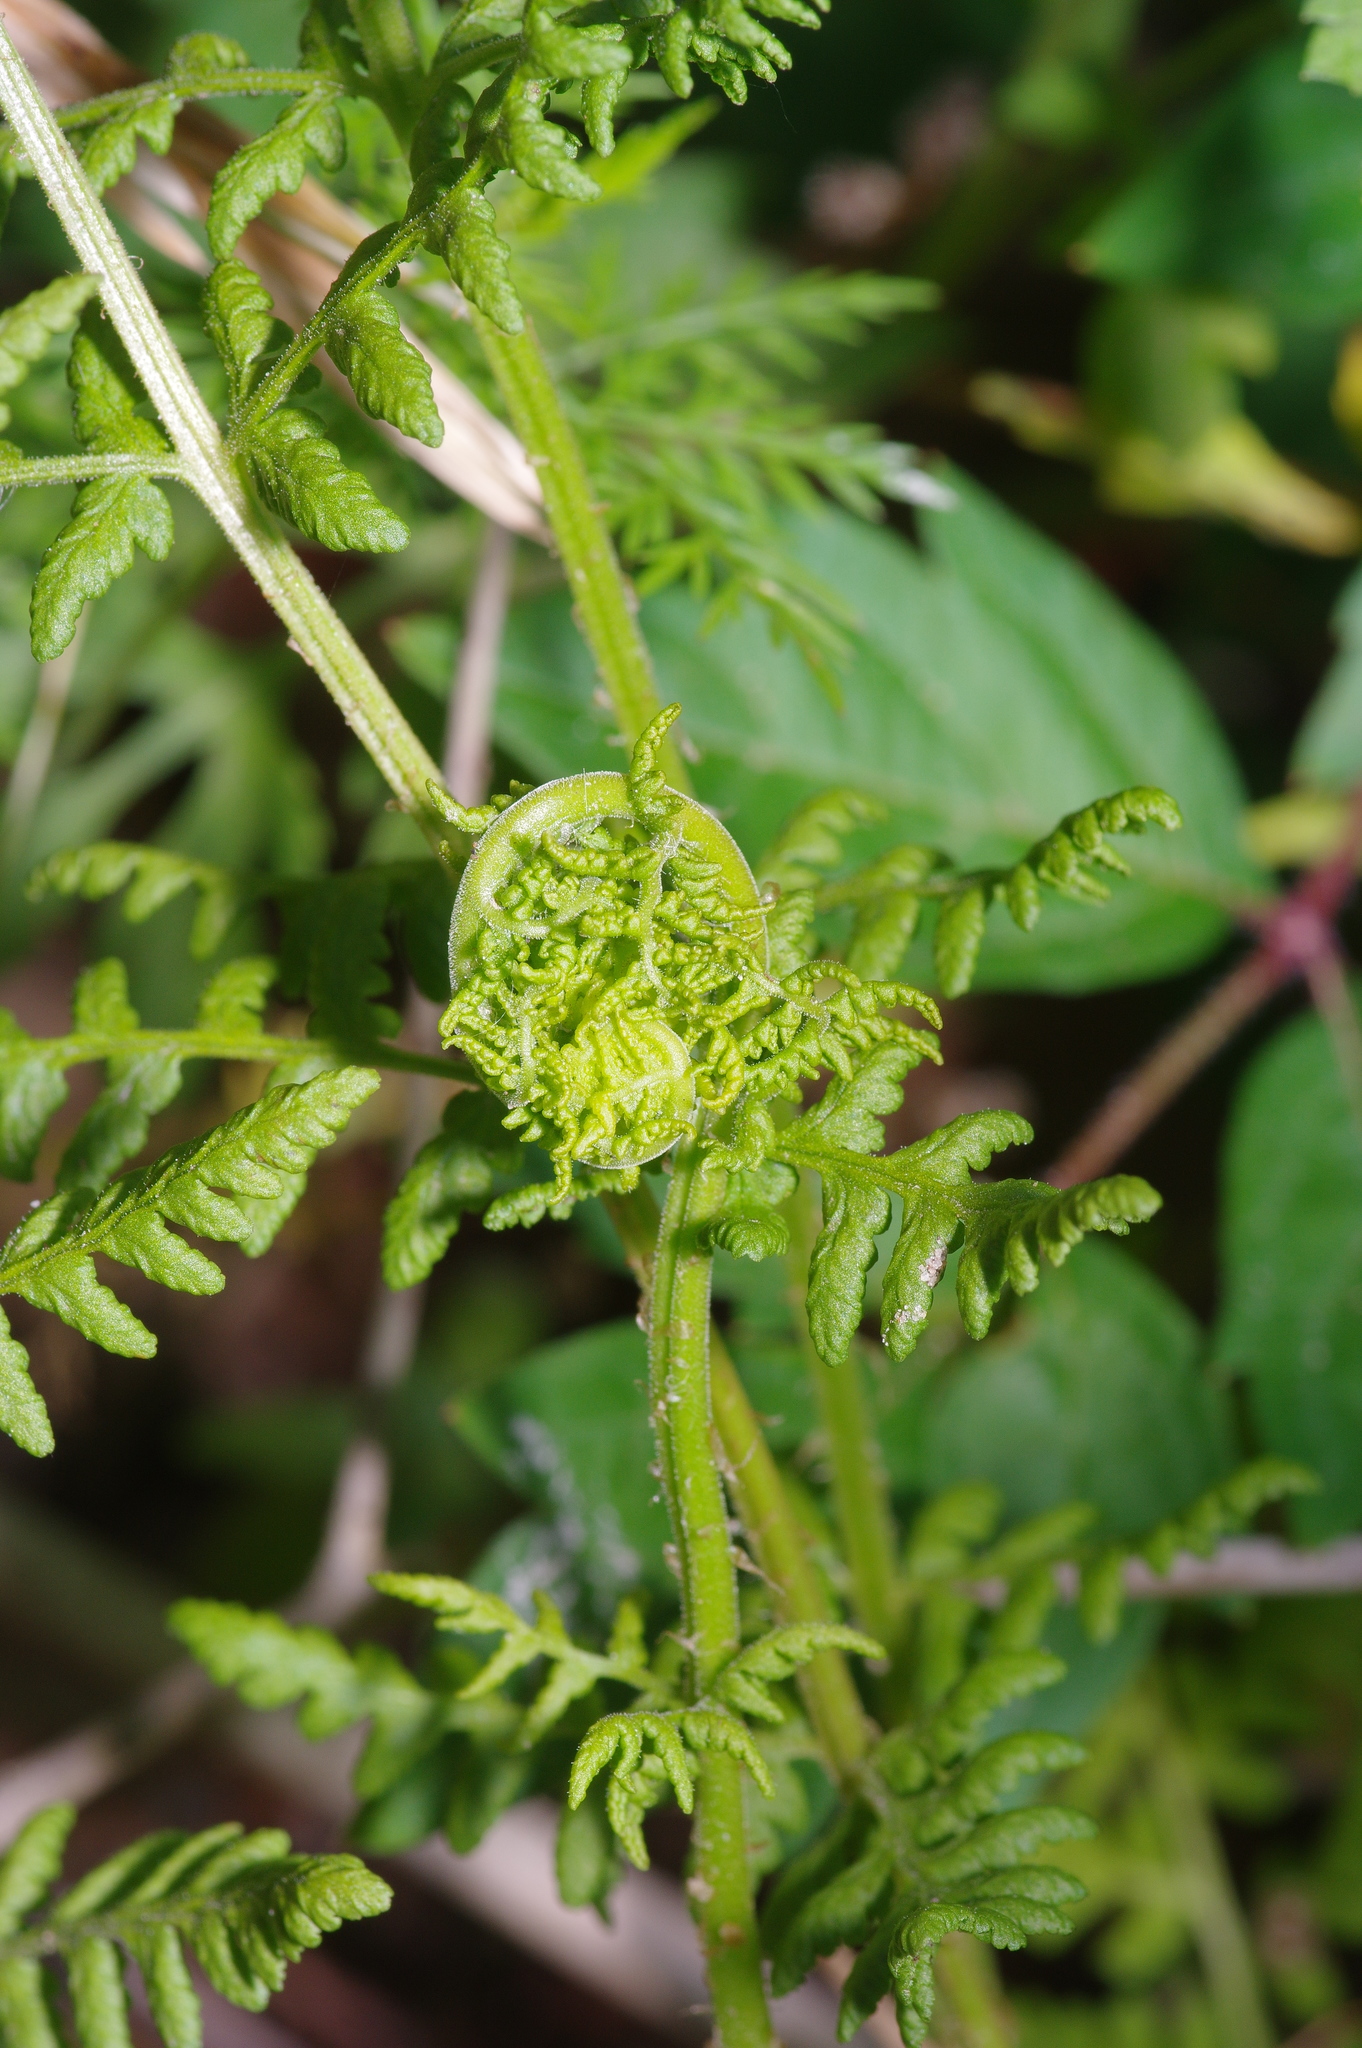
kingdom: Plantae
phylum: Tracheophyta
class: Polypodiopsida
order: Polypodiales
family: Woodsiaceae
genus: Physematium
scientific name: Physematium obtusum
